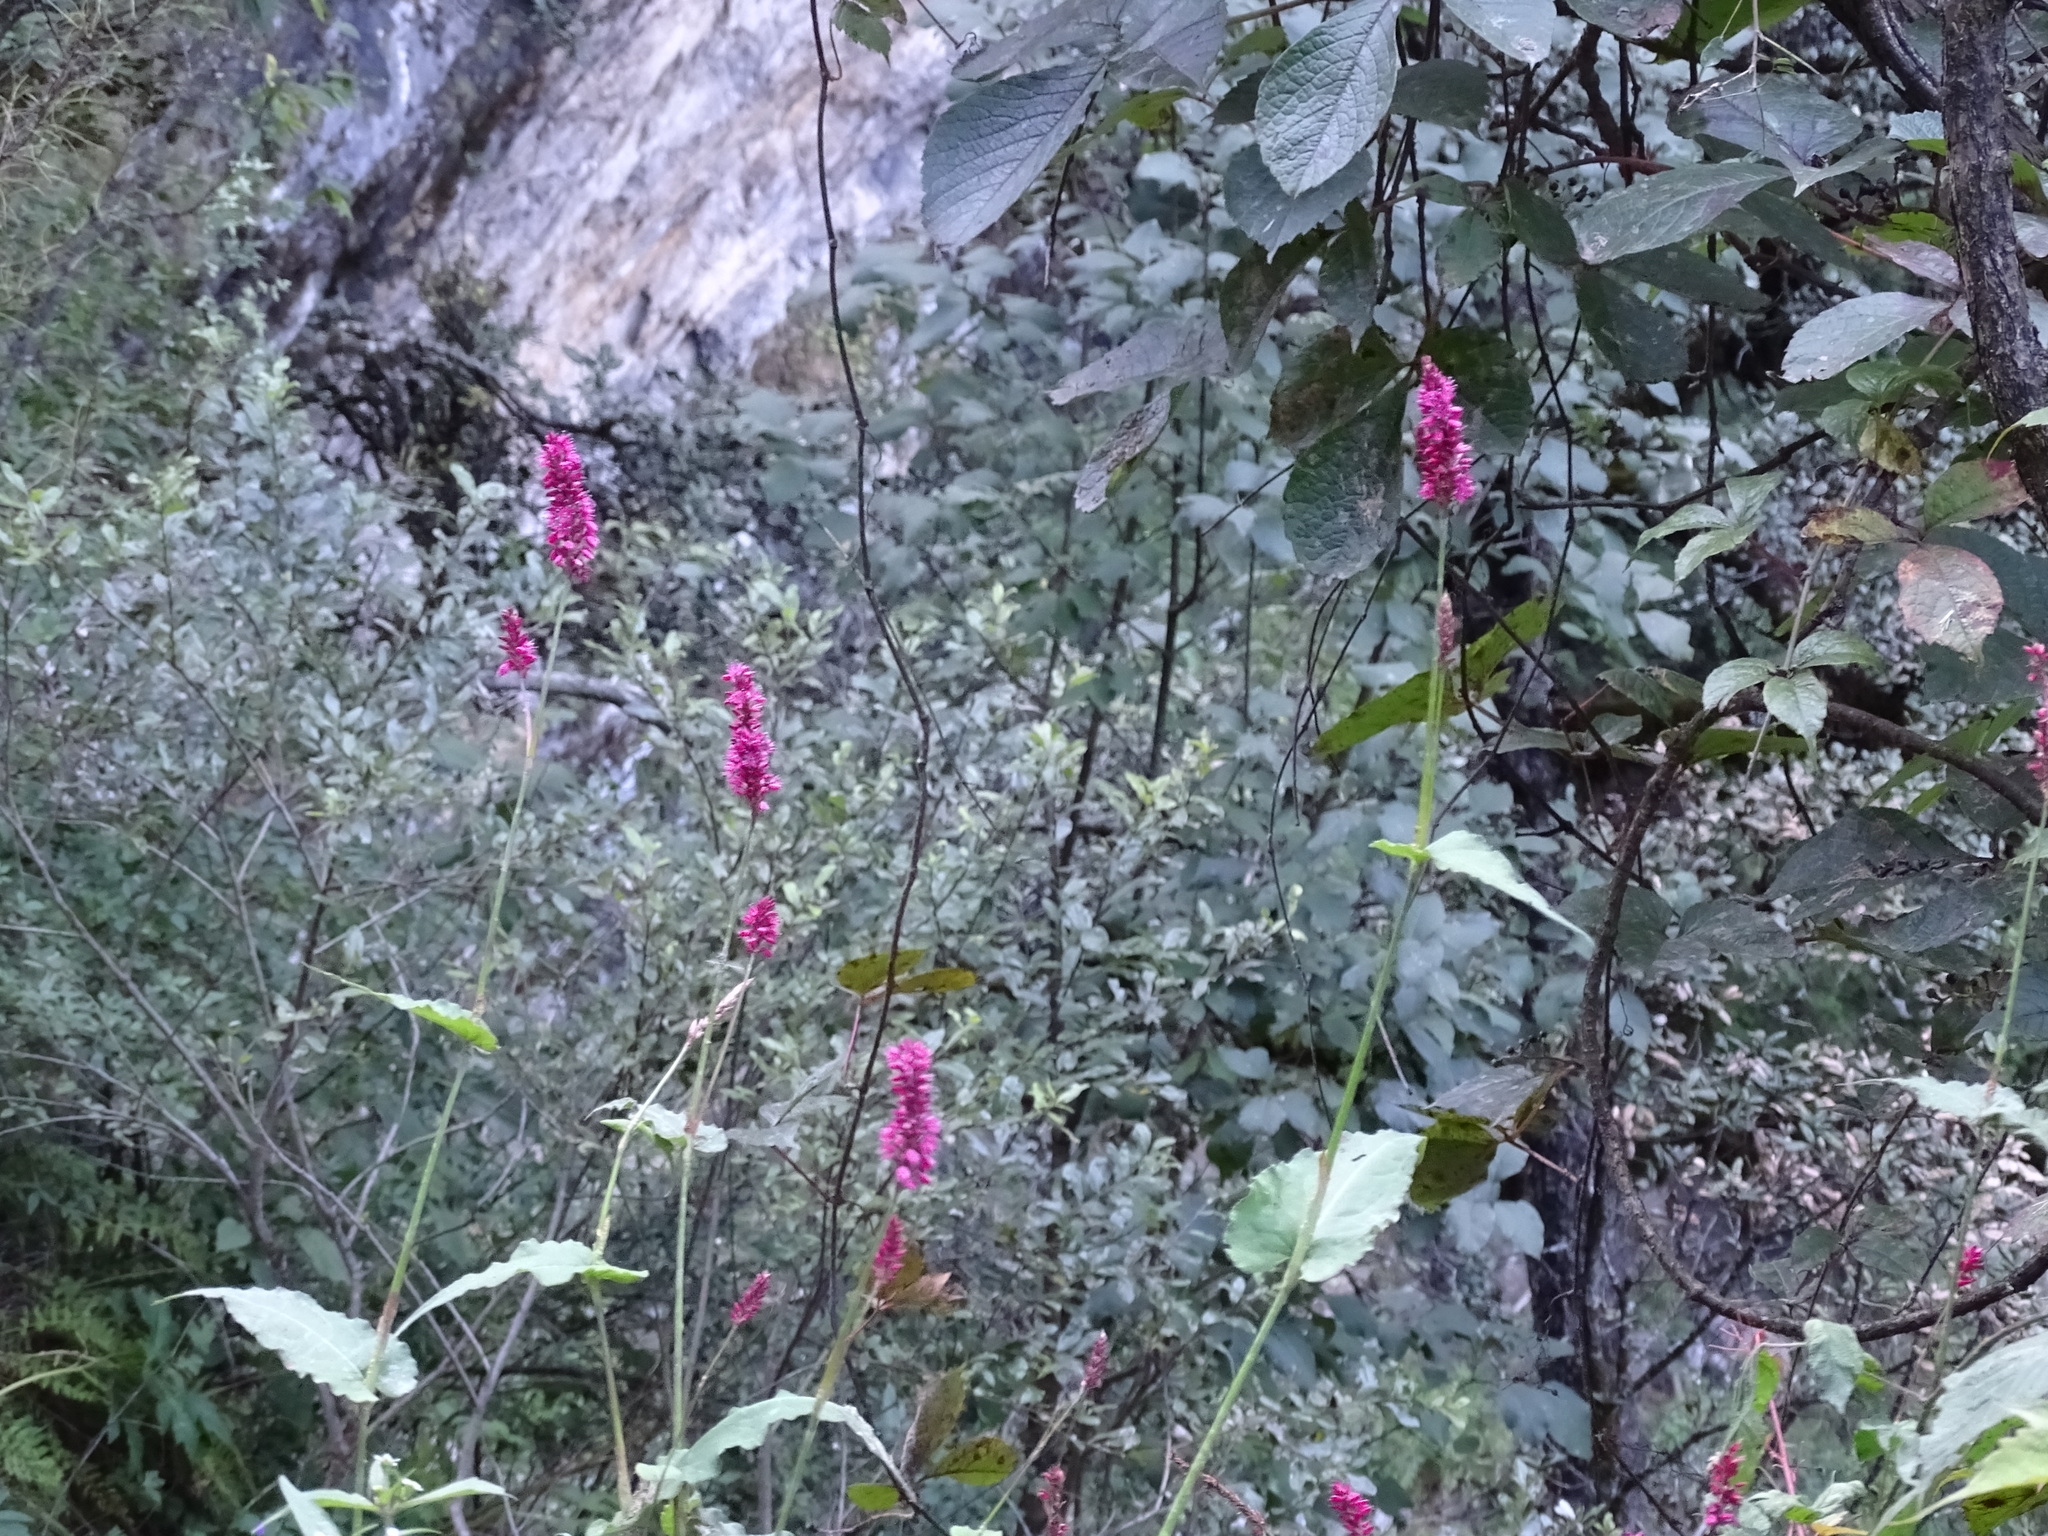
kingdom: Plantae
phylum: Tracheophyta
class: Magnoliopsida
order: Caryophyllales
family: Polygonaceae
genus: Bistorta
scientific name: Bistorta amplexicaulis
